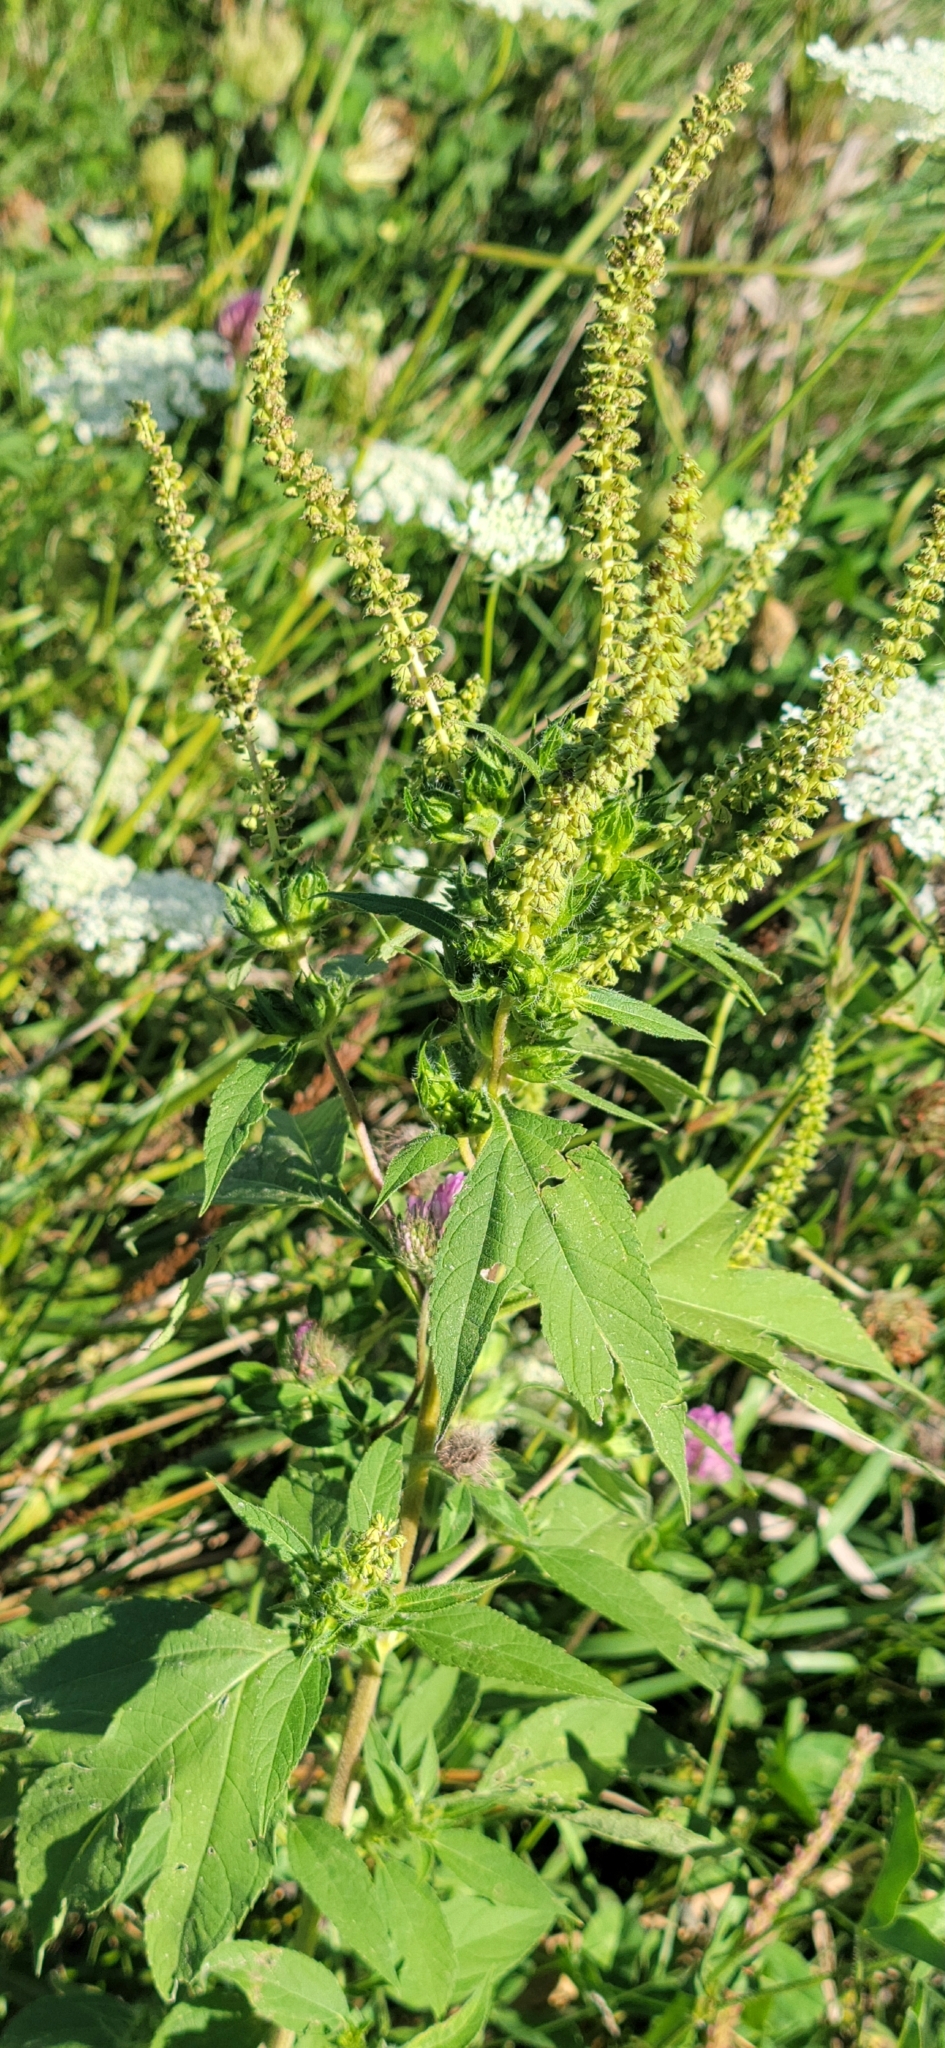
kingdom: Plantae
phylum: Tracheophyta
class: Magnoliopsida
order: Asterales
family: Asteraceae
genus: Ambrosia
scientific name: Ambrosia trifida
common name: Giant ragweed
